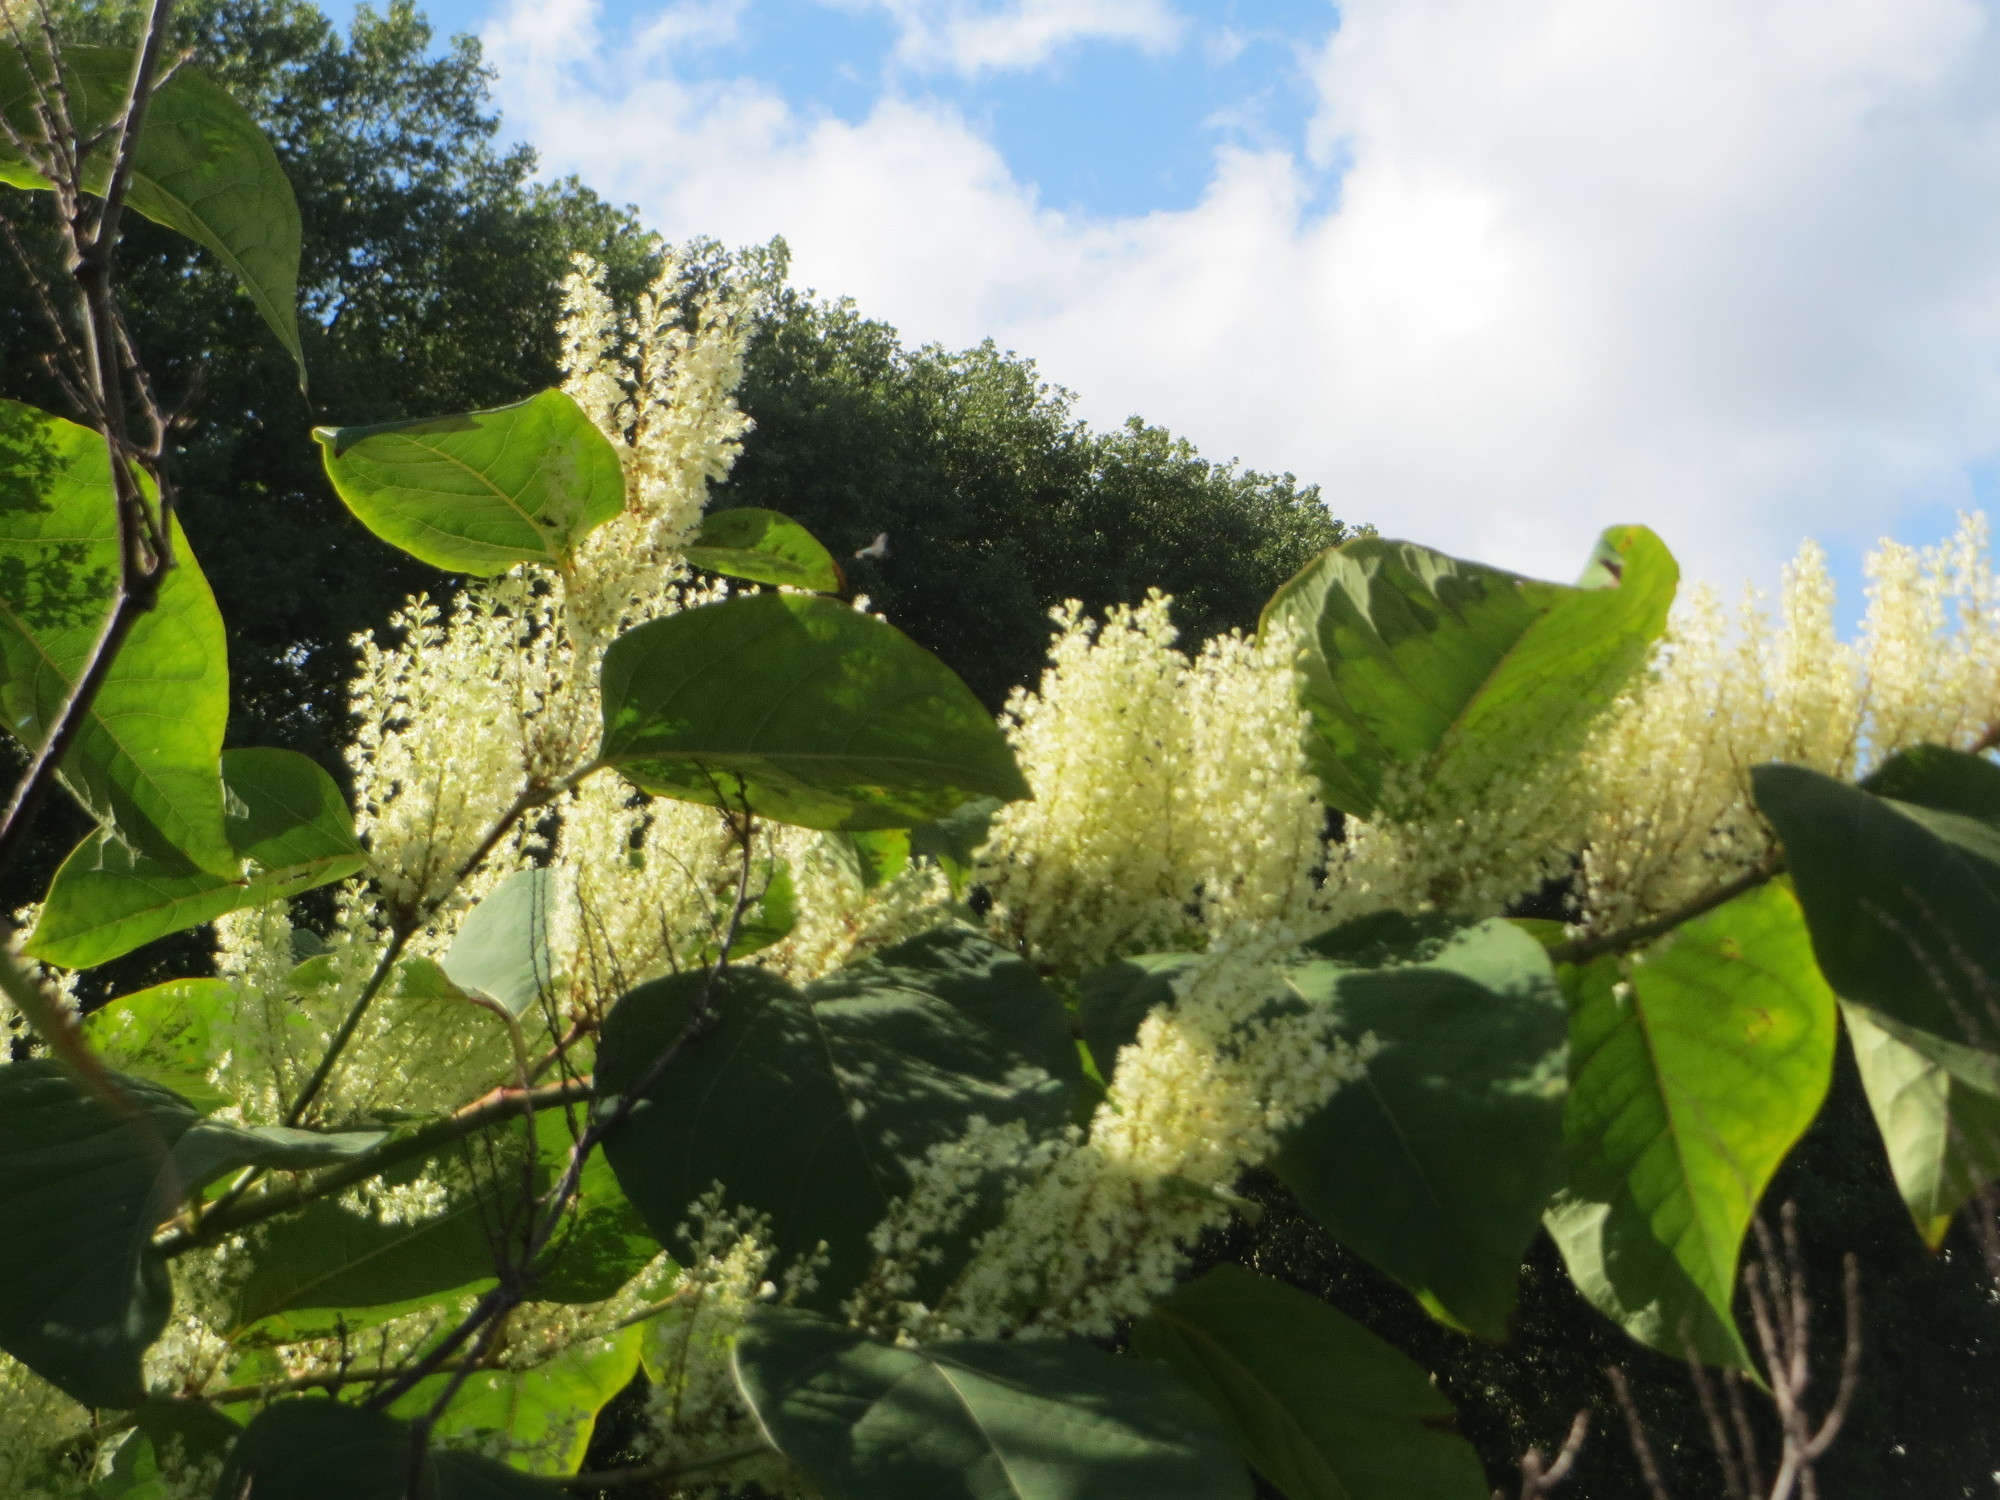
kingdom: Plantae
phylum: Tracheophyta
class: Magnoliopsida
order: Caryophyllales
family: Polygonaceae
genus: Reynoutria
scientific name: Reynoutria japonica
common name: Japanese knotweed
